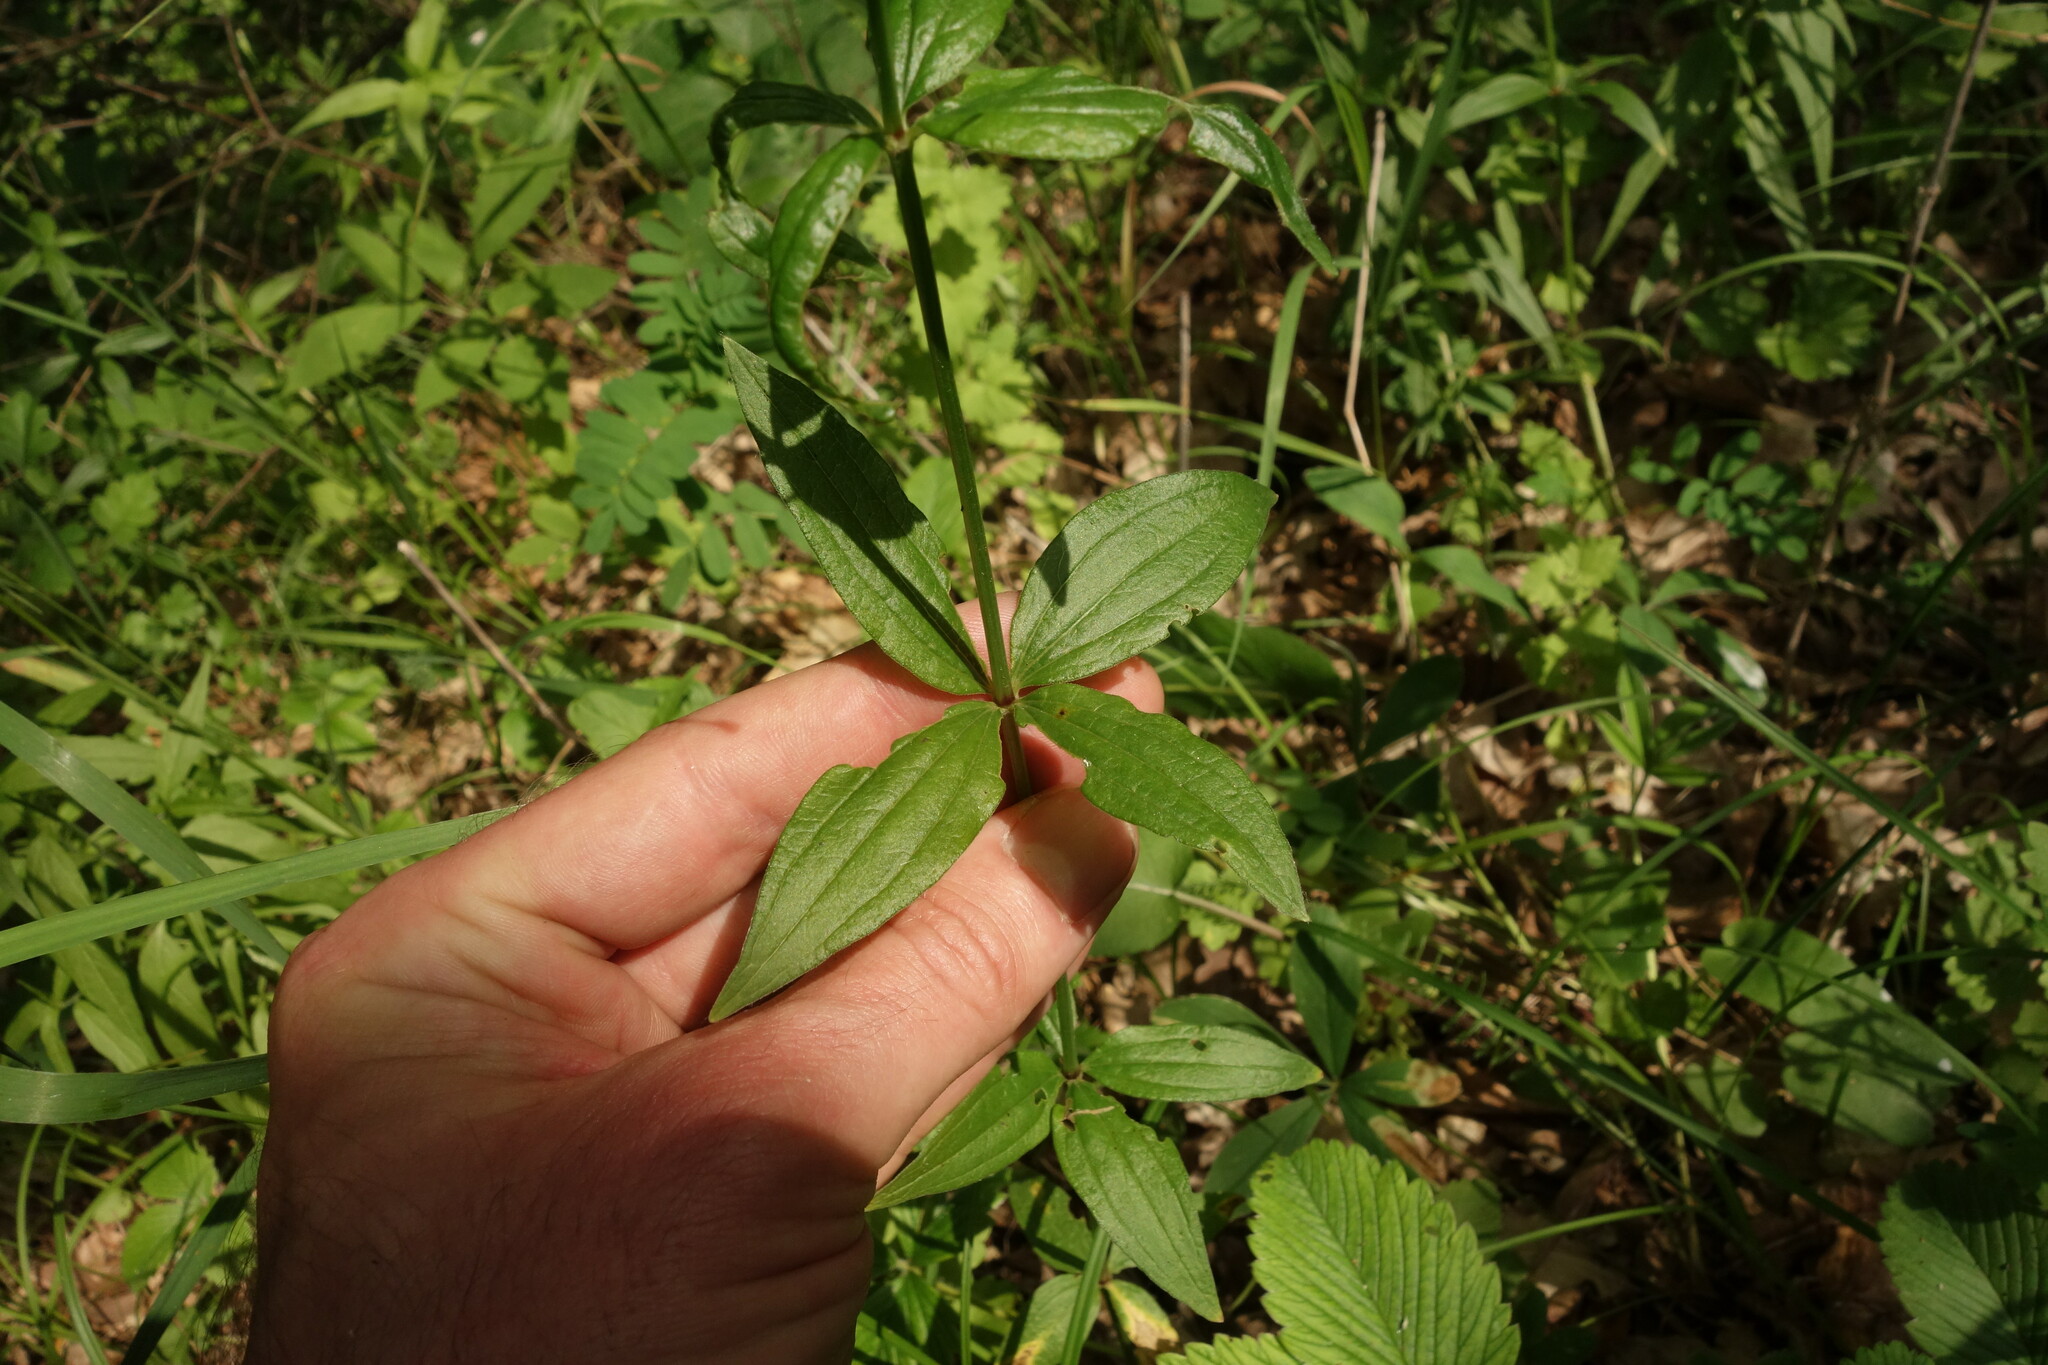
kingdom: Plantae
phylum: Tracheophyta
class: Magnoliopsida
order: Gentianales
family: Rubiaceae
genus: Galium
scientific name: Galium rubioides
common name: European bedstraw
